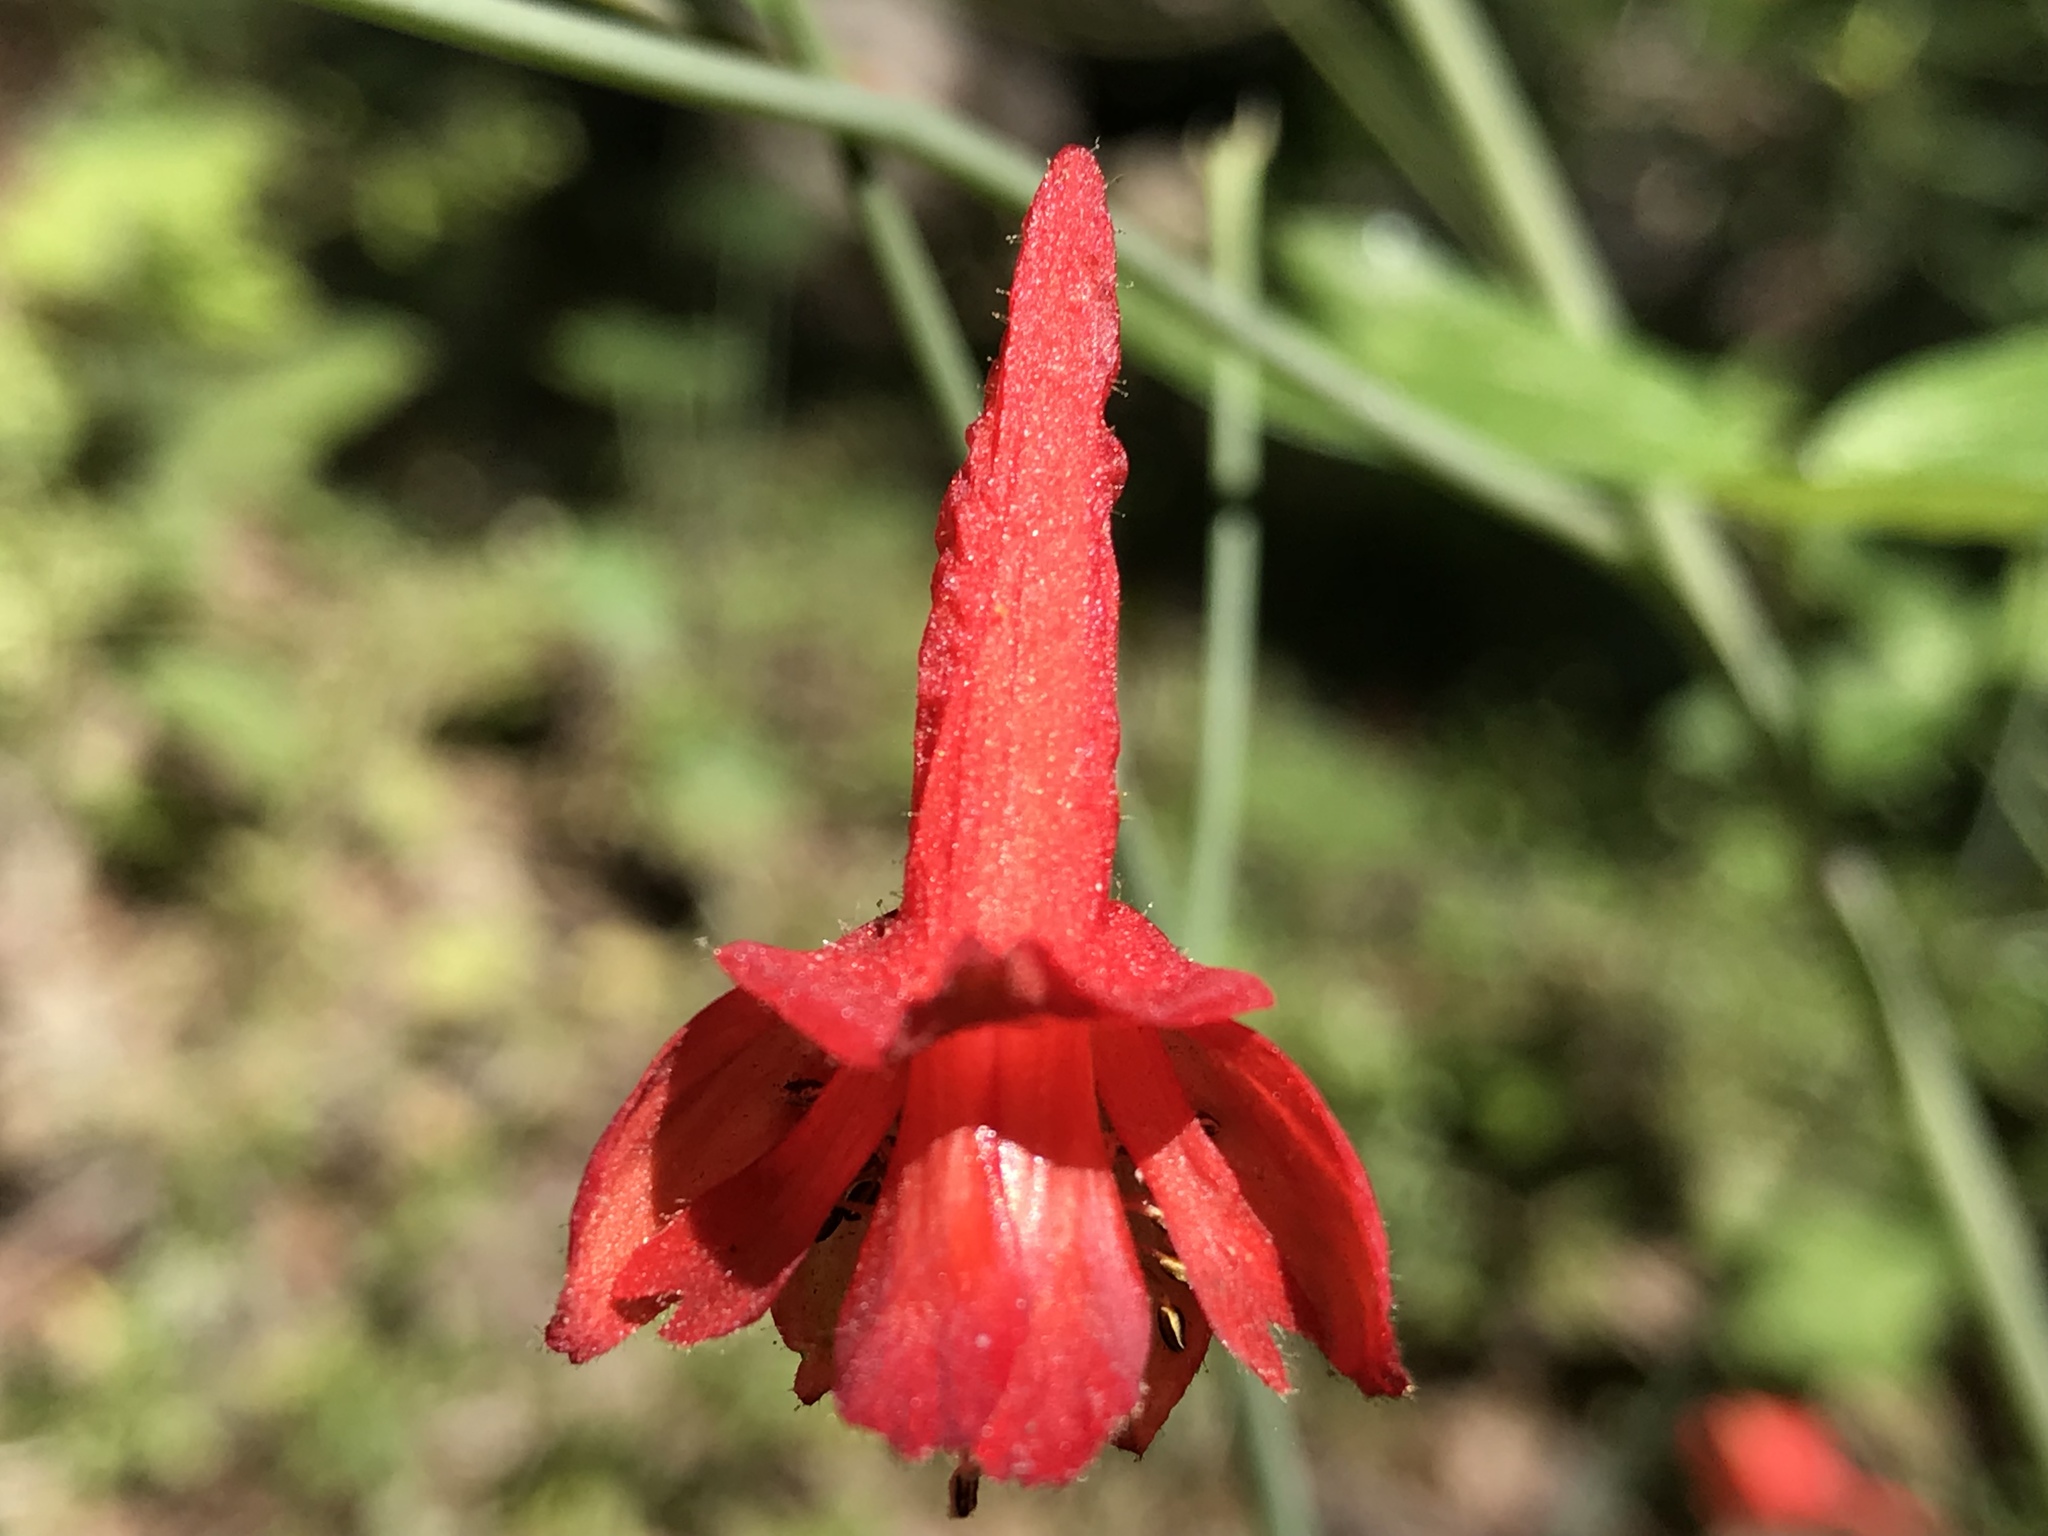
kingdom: Plantae
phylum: Tracheophyta
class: Magnoliopsida
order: Ranunculales
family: Ranunculaceae
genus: Delphinium
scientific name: Delphinium nudicaule
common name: Red larkspur
